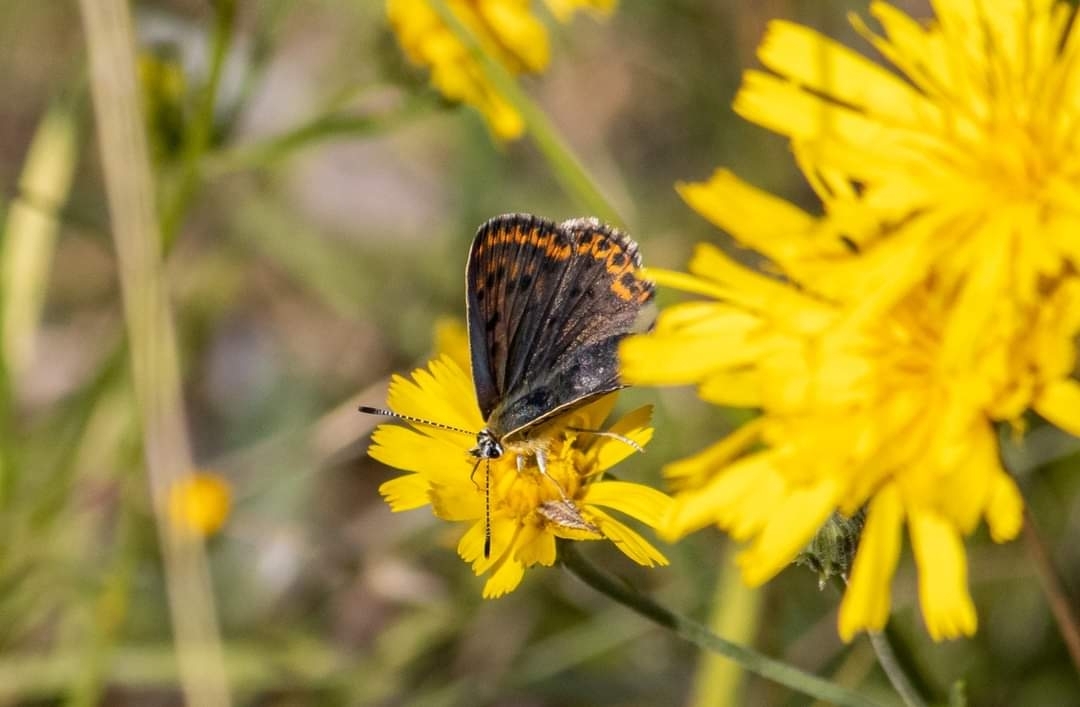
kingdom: Animalia
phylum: Arthropoda
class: Insecta
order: Lepidoptera
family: Lycaenidae
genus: Loweia
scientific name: Loweia tityrus
